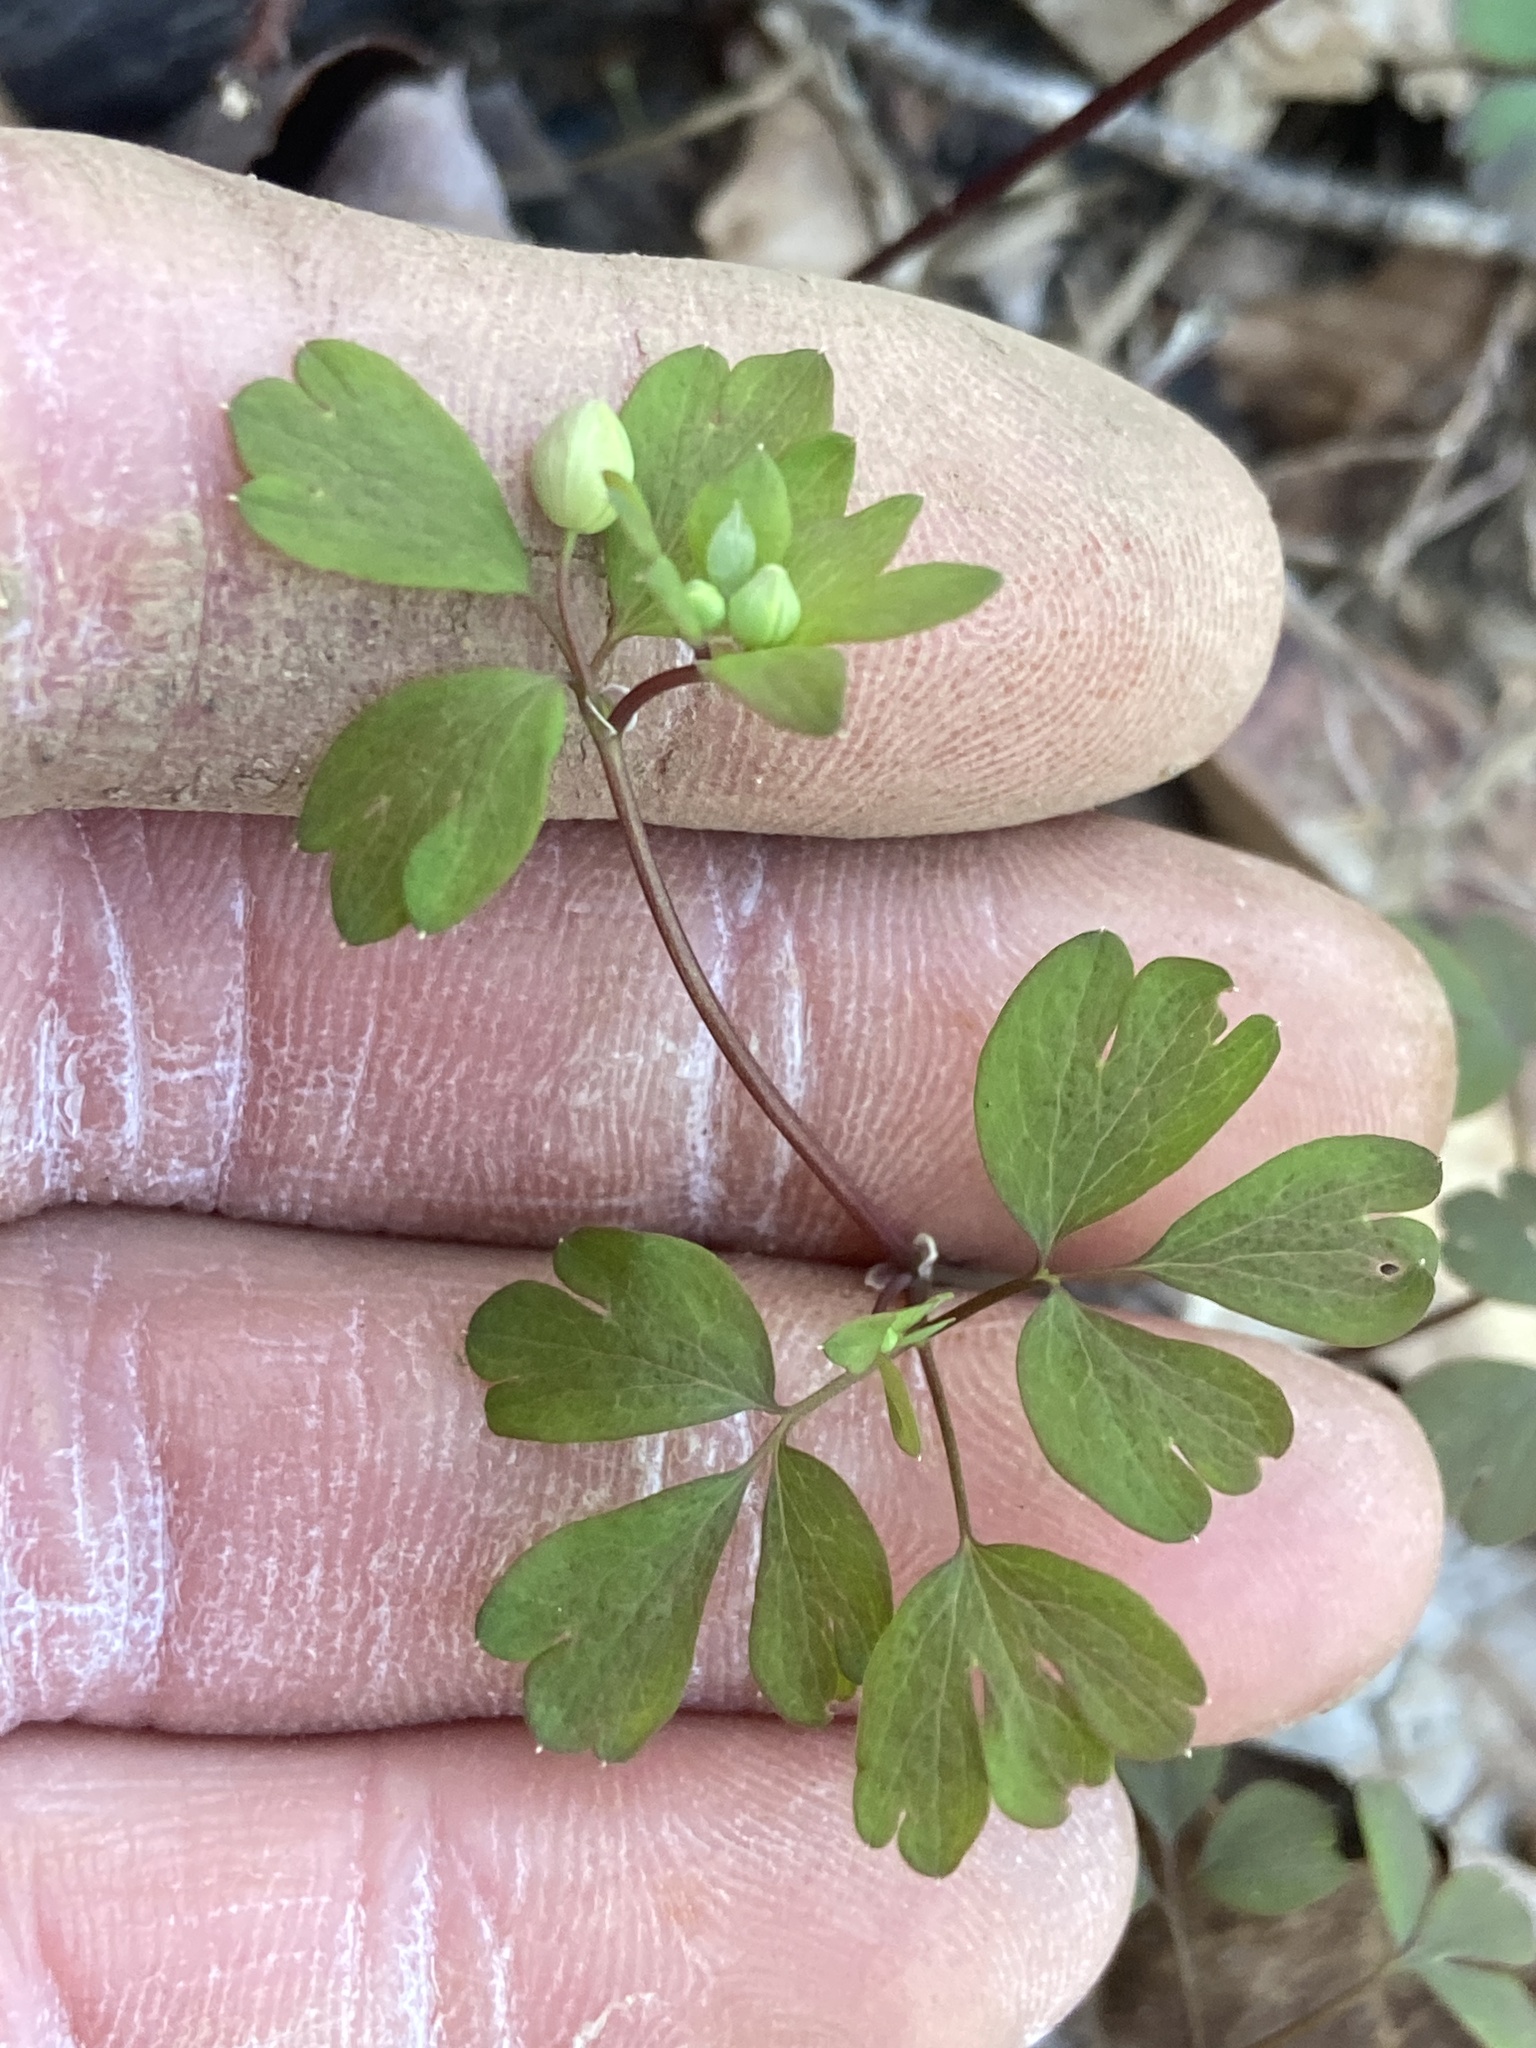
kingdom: Plantae
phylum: Tracheophyta
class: Magnoliopsida
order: Ranunculales
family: Ranunculaceae
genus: Enemion
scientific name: Enemion biternatum
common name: Eastern false rue-anemone
